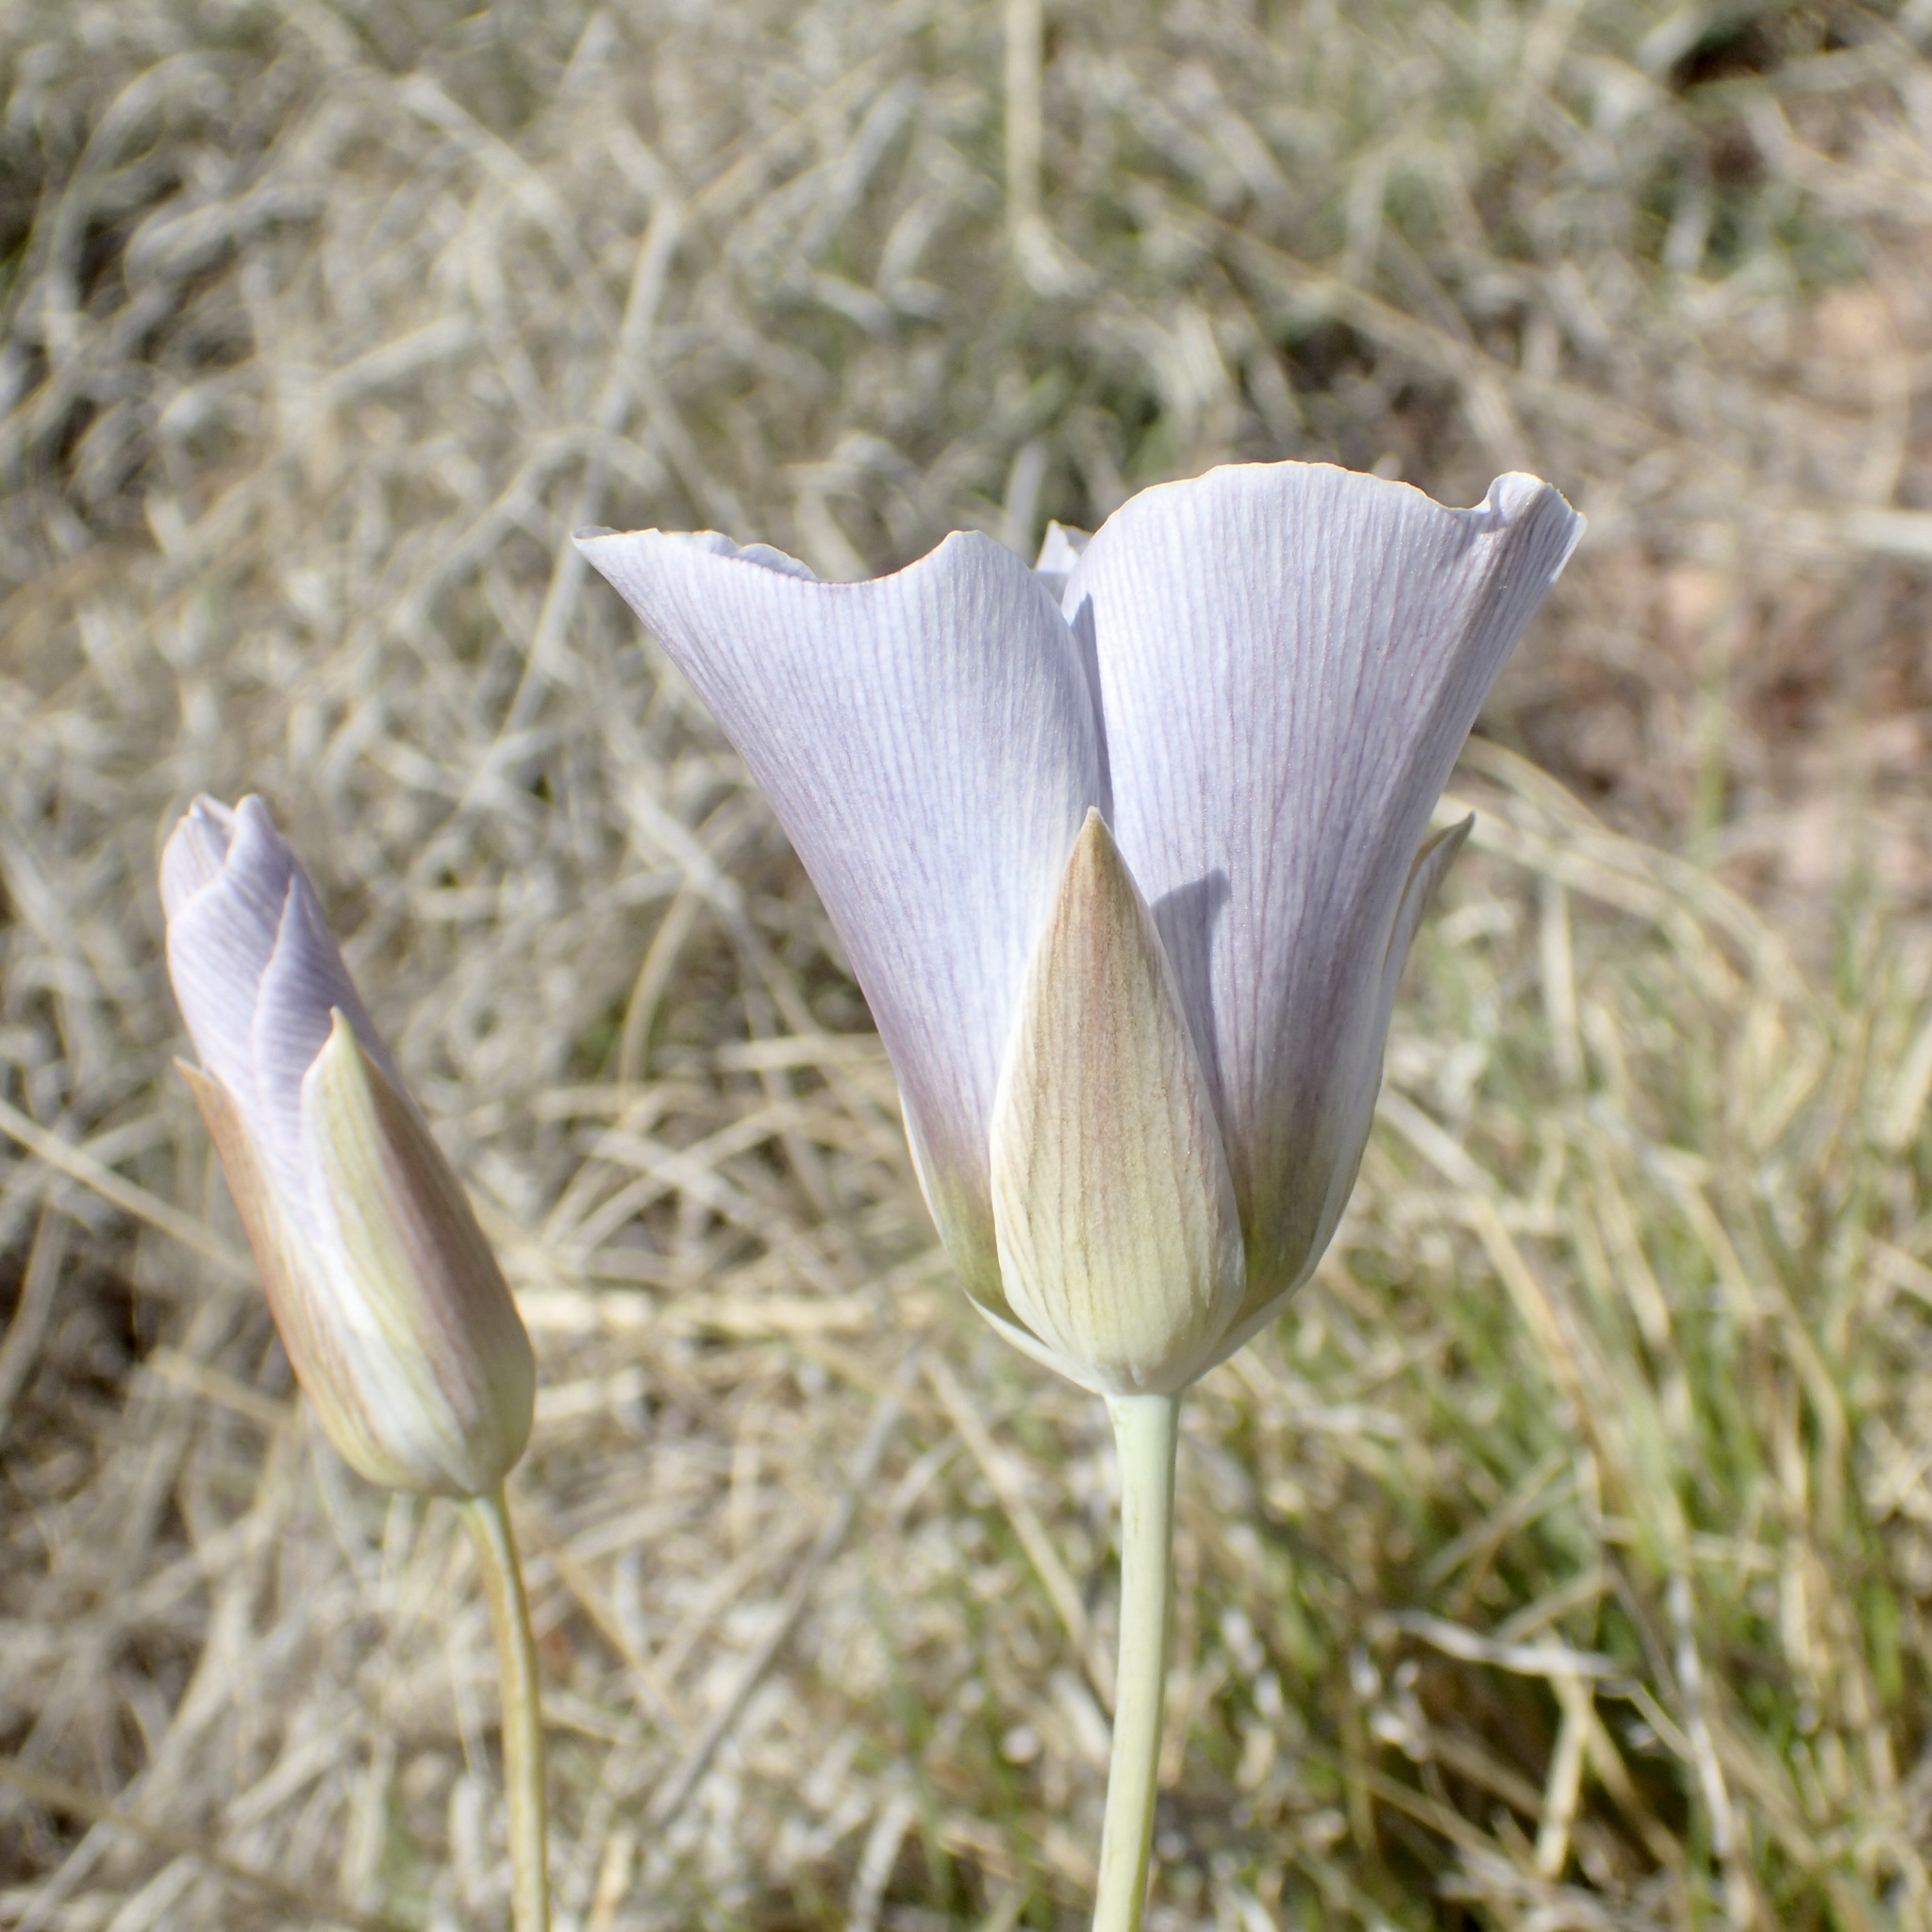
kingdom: Plantae
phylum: Tracheophyta
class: Liliopsida
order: Liliales
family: Liliaceae
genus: Calochortus
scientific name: Calochortus ambiguus
